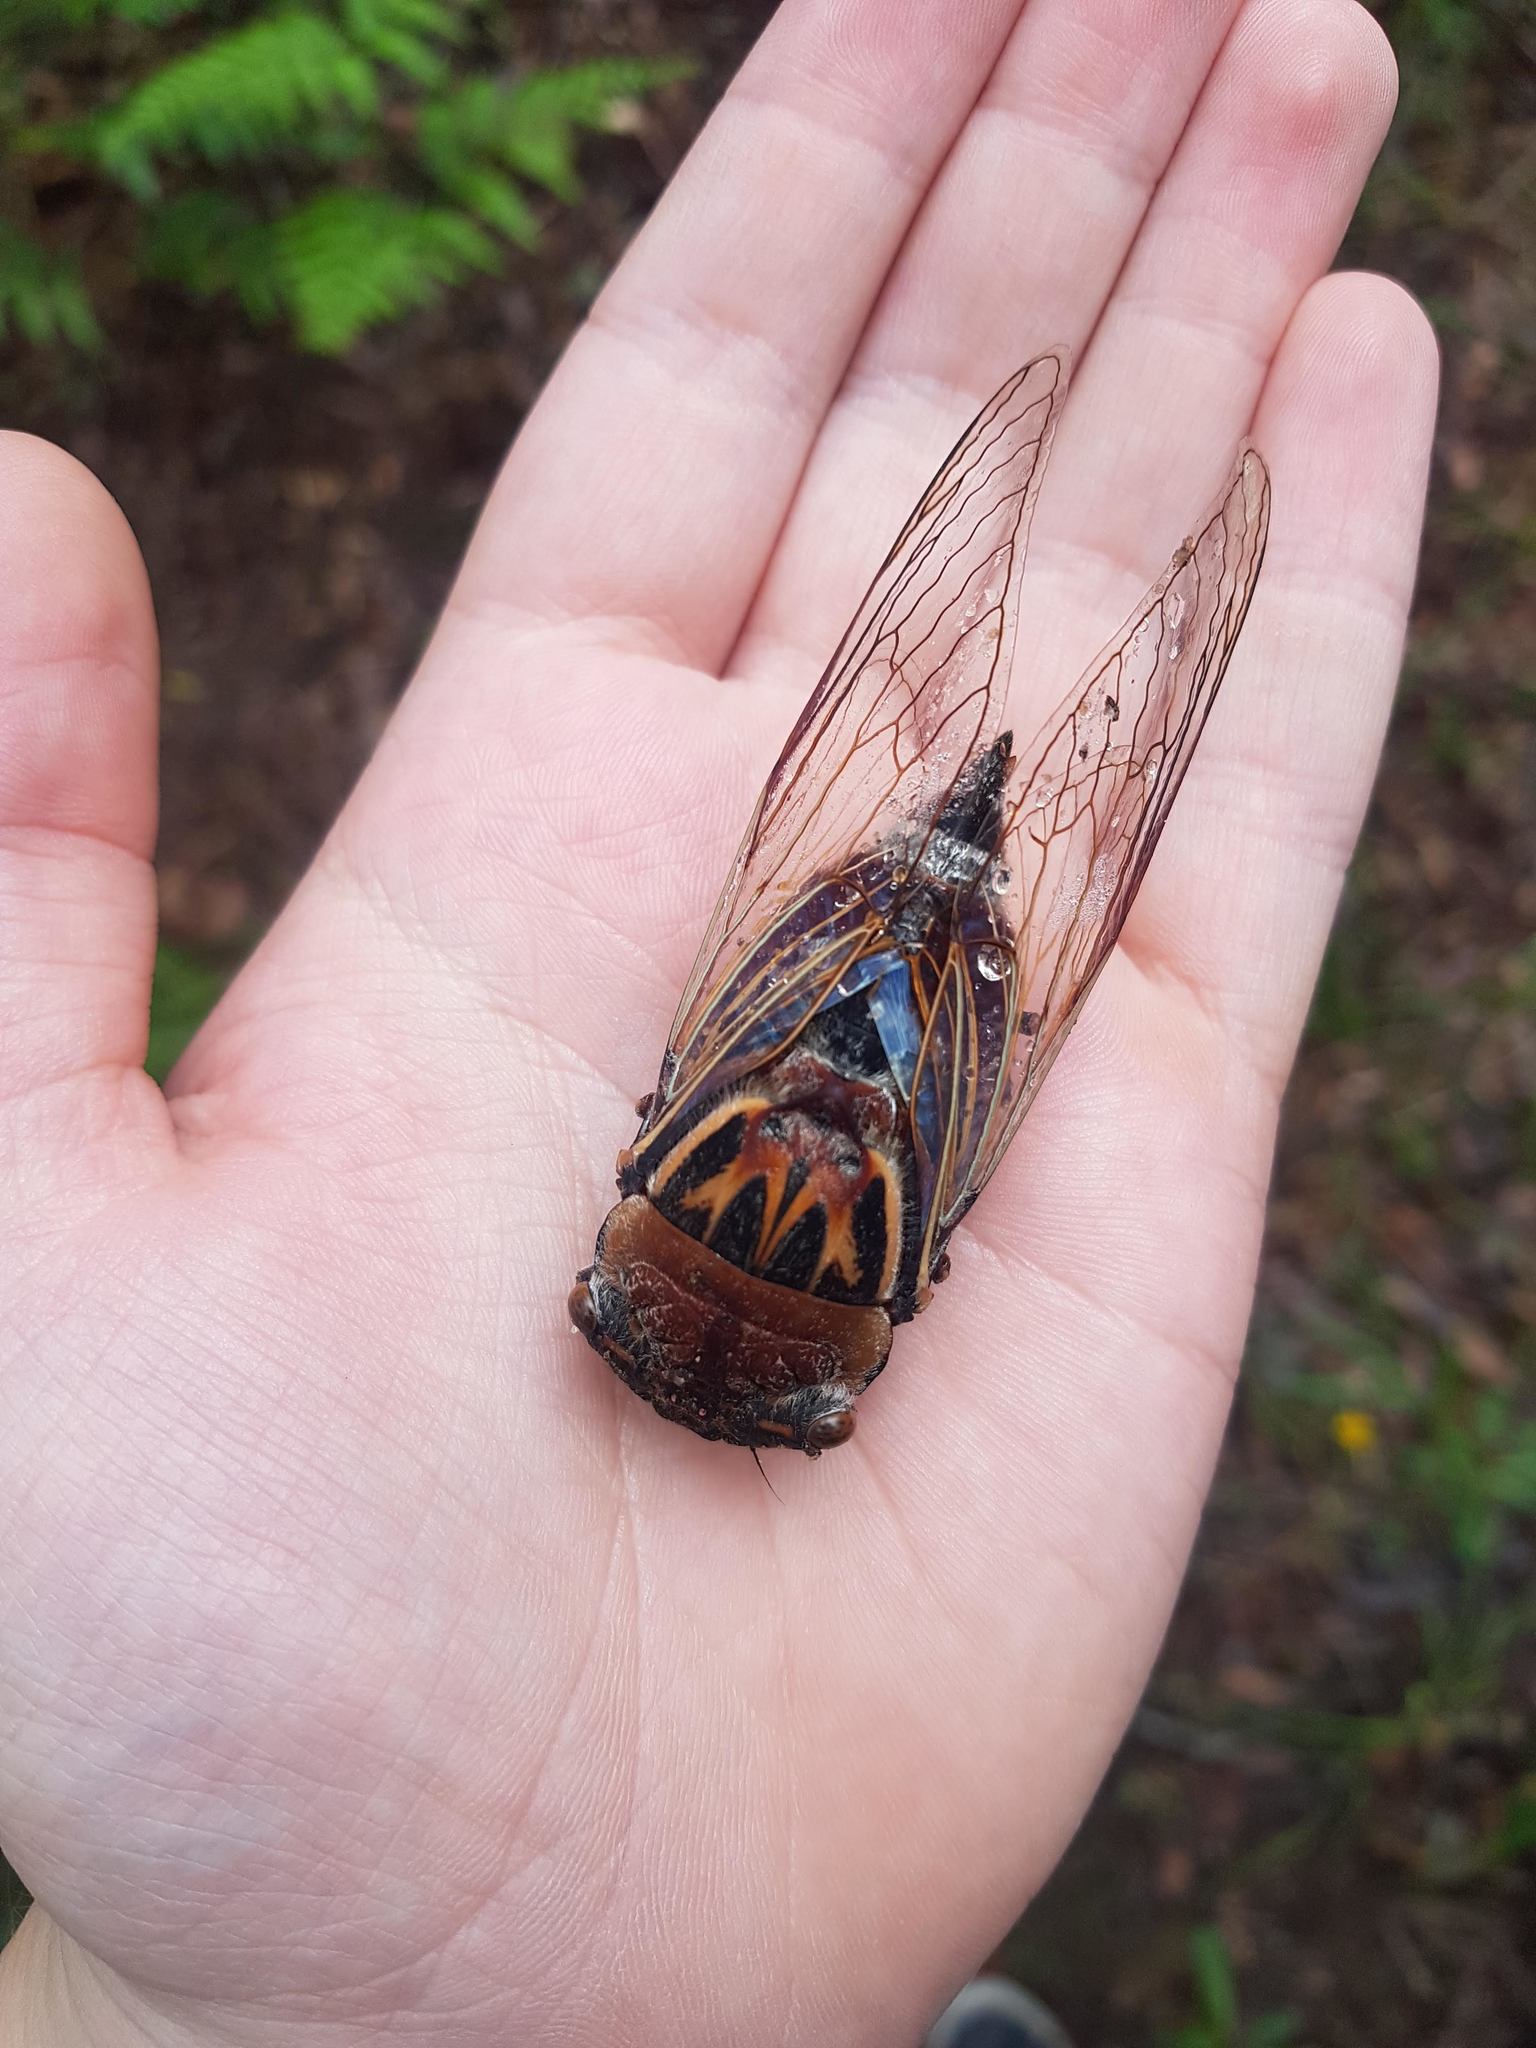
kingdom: Animalia
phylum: Arthropoda
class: Insecta
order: Hemiptera
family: Cicadidae
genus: Thopha
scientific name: Thopha saccata
